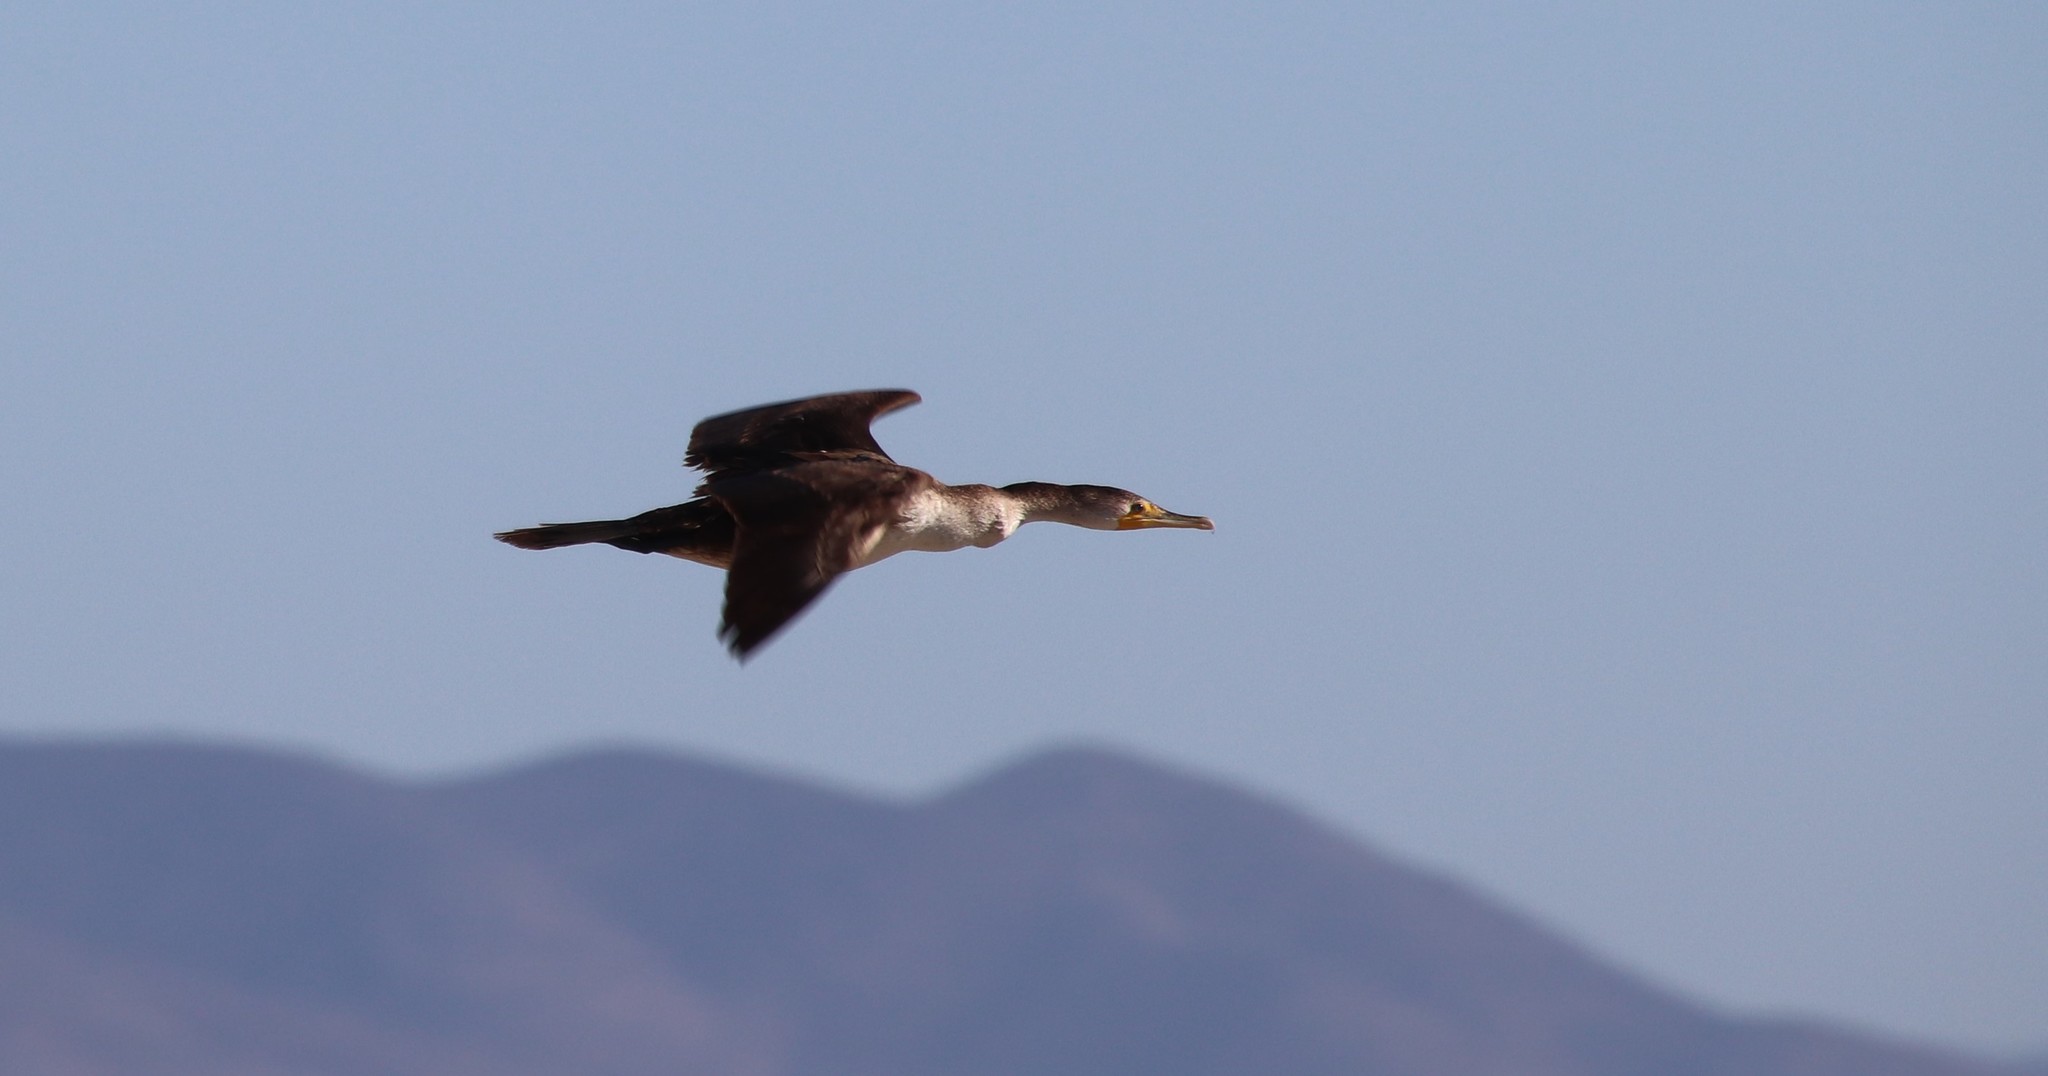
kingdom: Animalia
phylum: Chordata
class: Aves
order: Suliformes
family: Phalacrocoracidae
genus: Phalacrocorax
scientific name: Phalacrocorax auritus
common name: Double-crested cormorant
